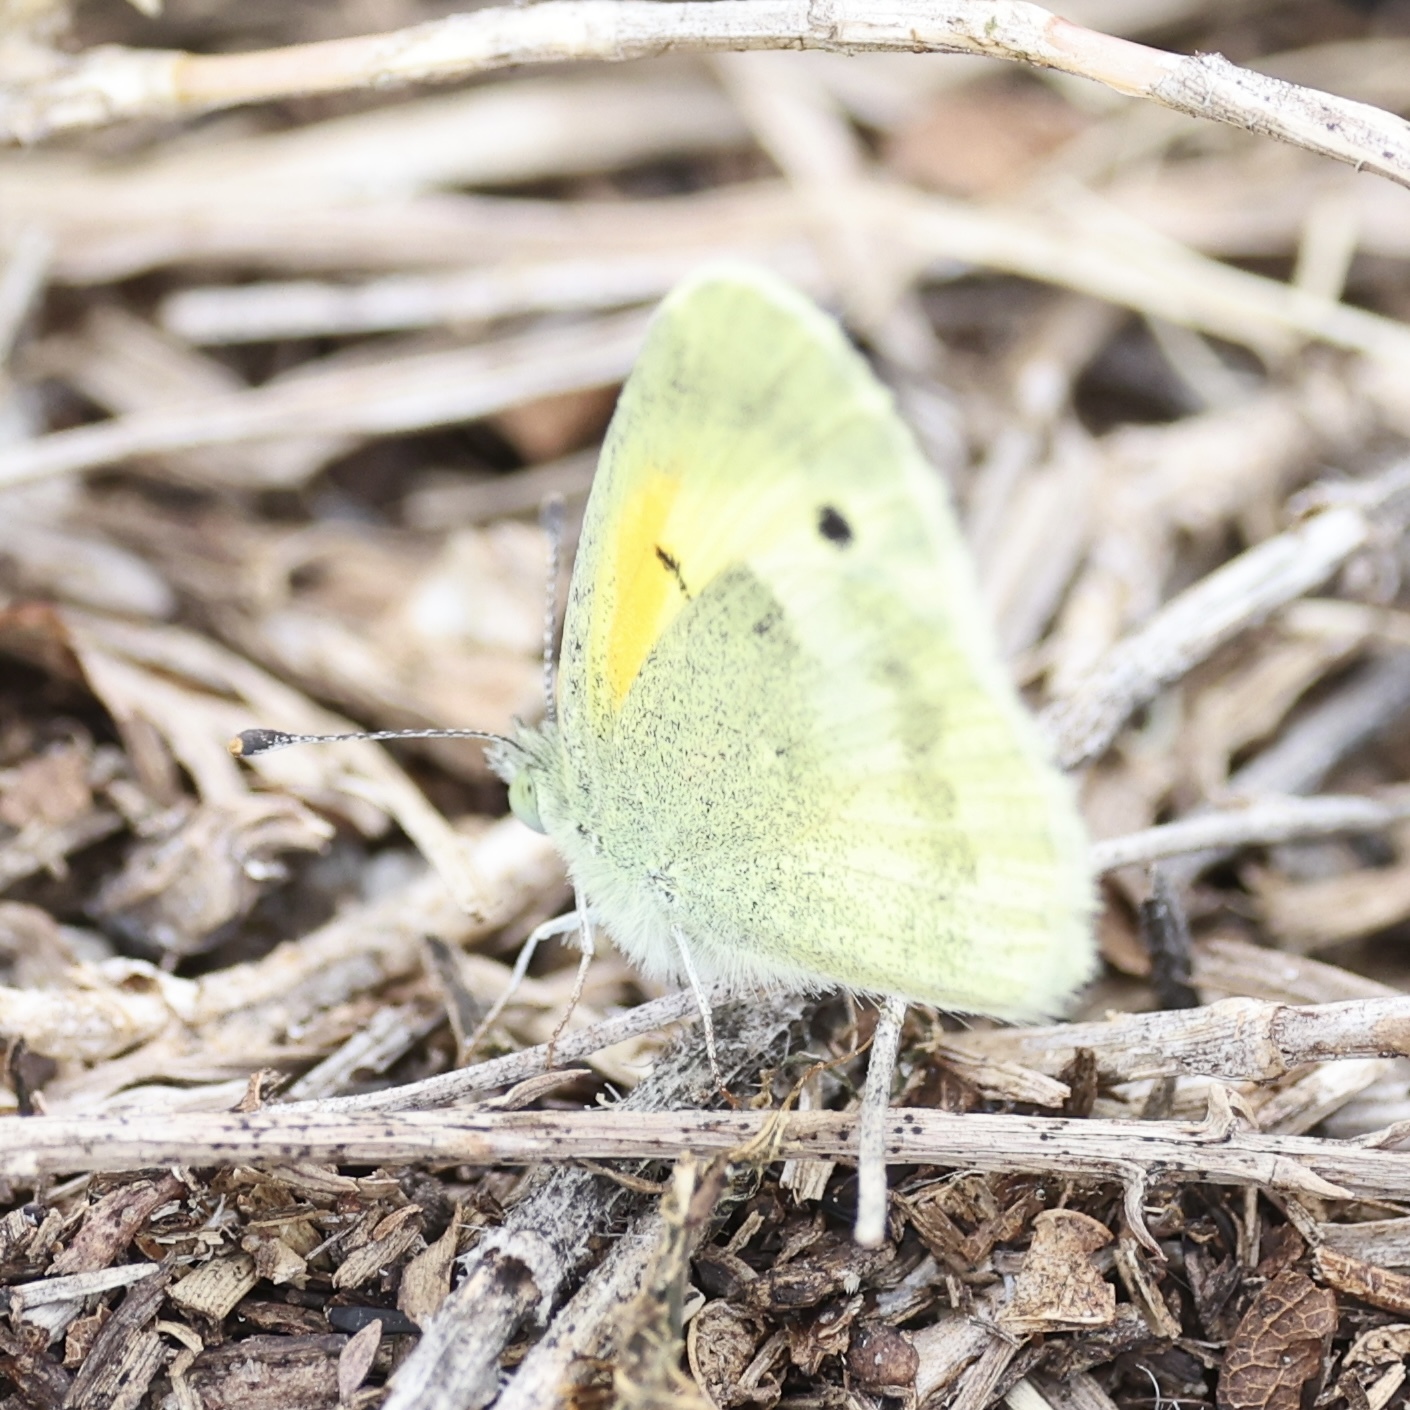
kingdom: Animalia
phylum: Arthropoda
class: Insecta
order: Lepidoptera
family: Pieridae
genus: Nathalis
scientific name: Nathalis iole
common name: Dainty sulphur
